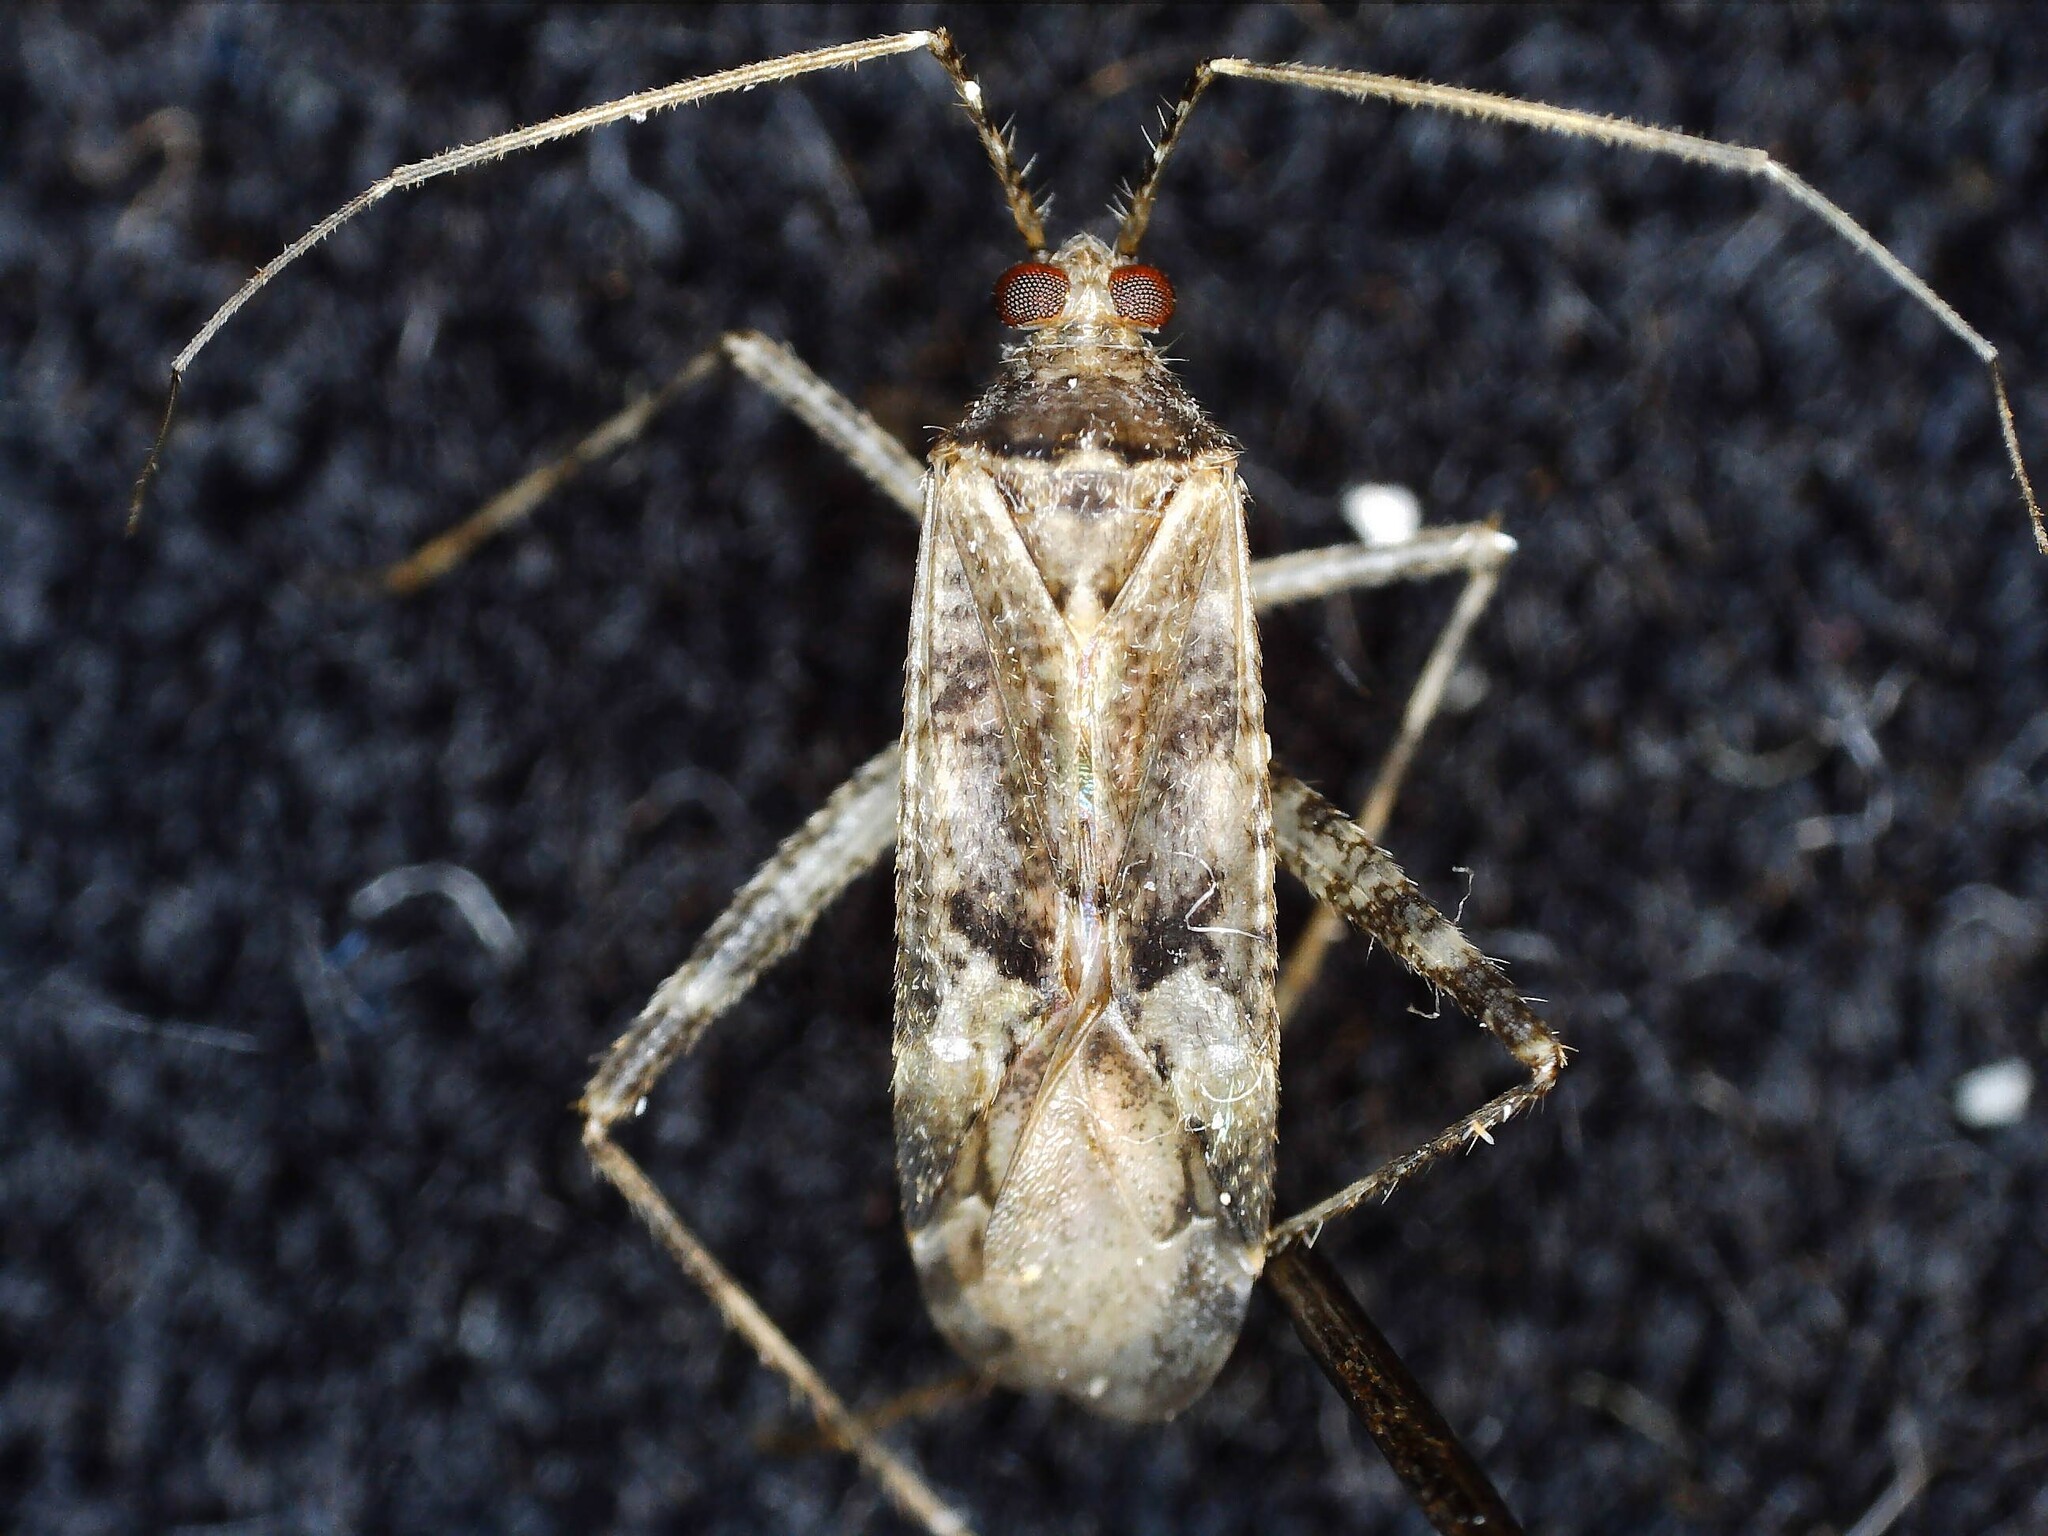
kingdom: Animalia
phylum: Arthropoda
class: Insecta
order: Hemiptera
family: Miridae
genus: Phytocoris
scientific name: Phytocoris longipennis
